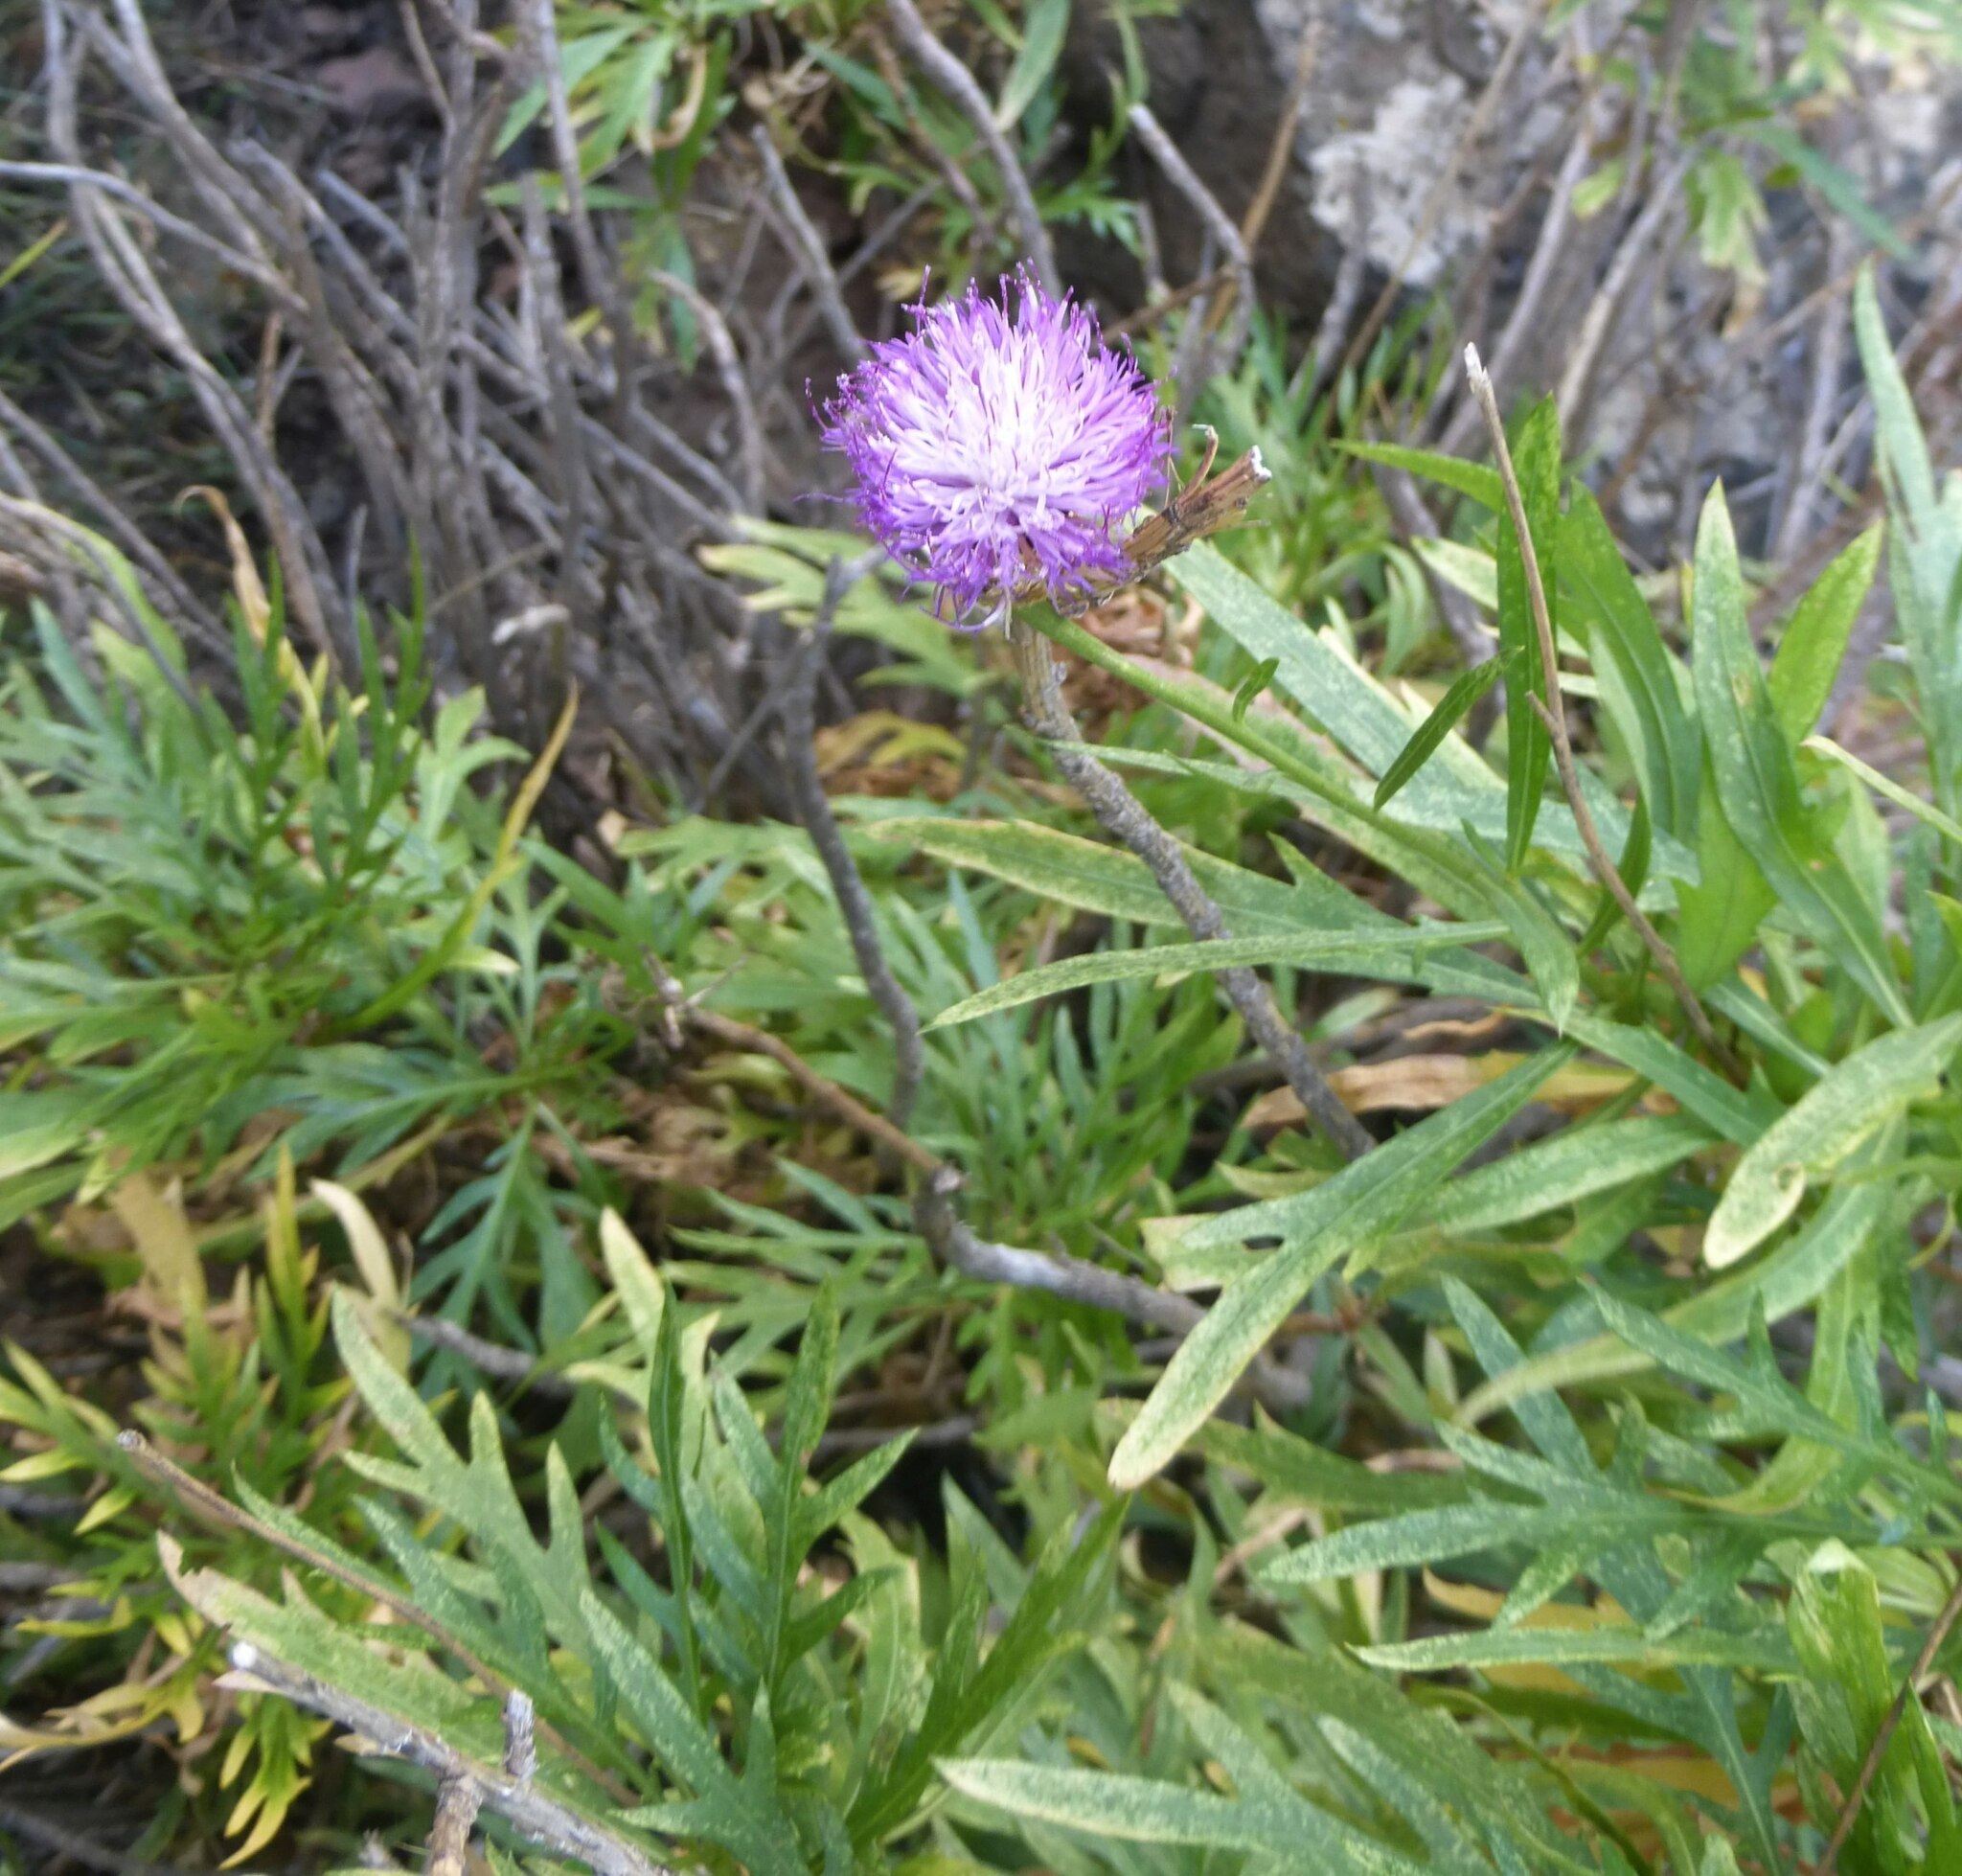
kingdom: Plantae
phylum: Tracheophyta
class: Magnoliopsida
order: Asterales
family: Asteraceae
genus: Cheirolophus
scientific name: Cheirolophus falcisectus
